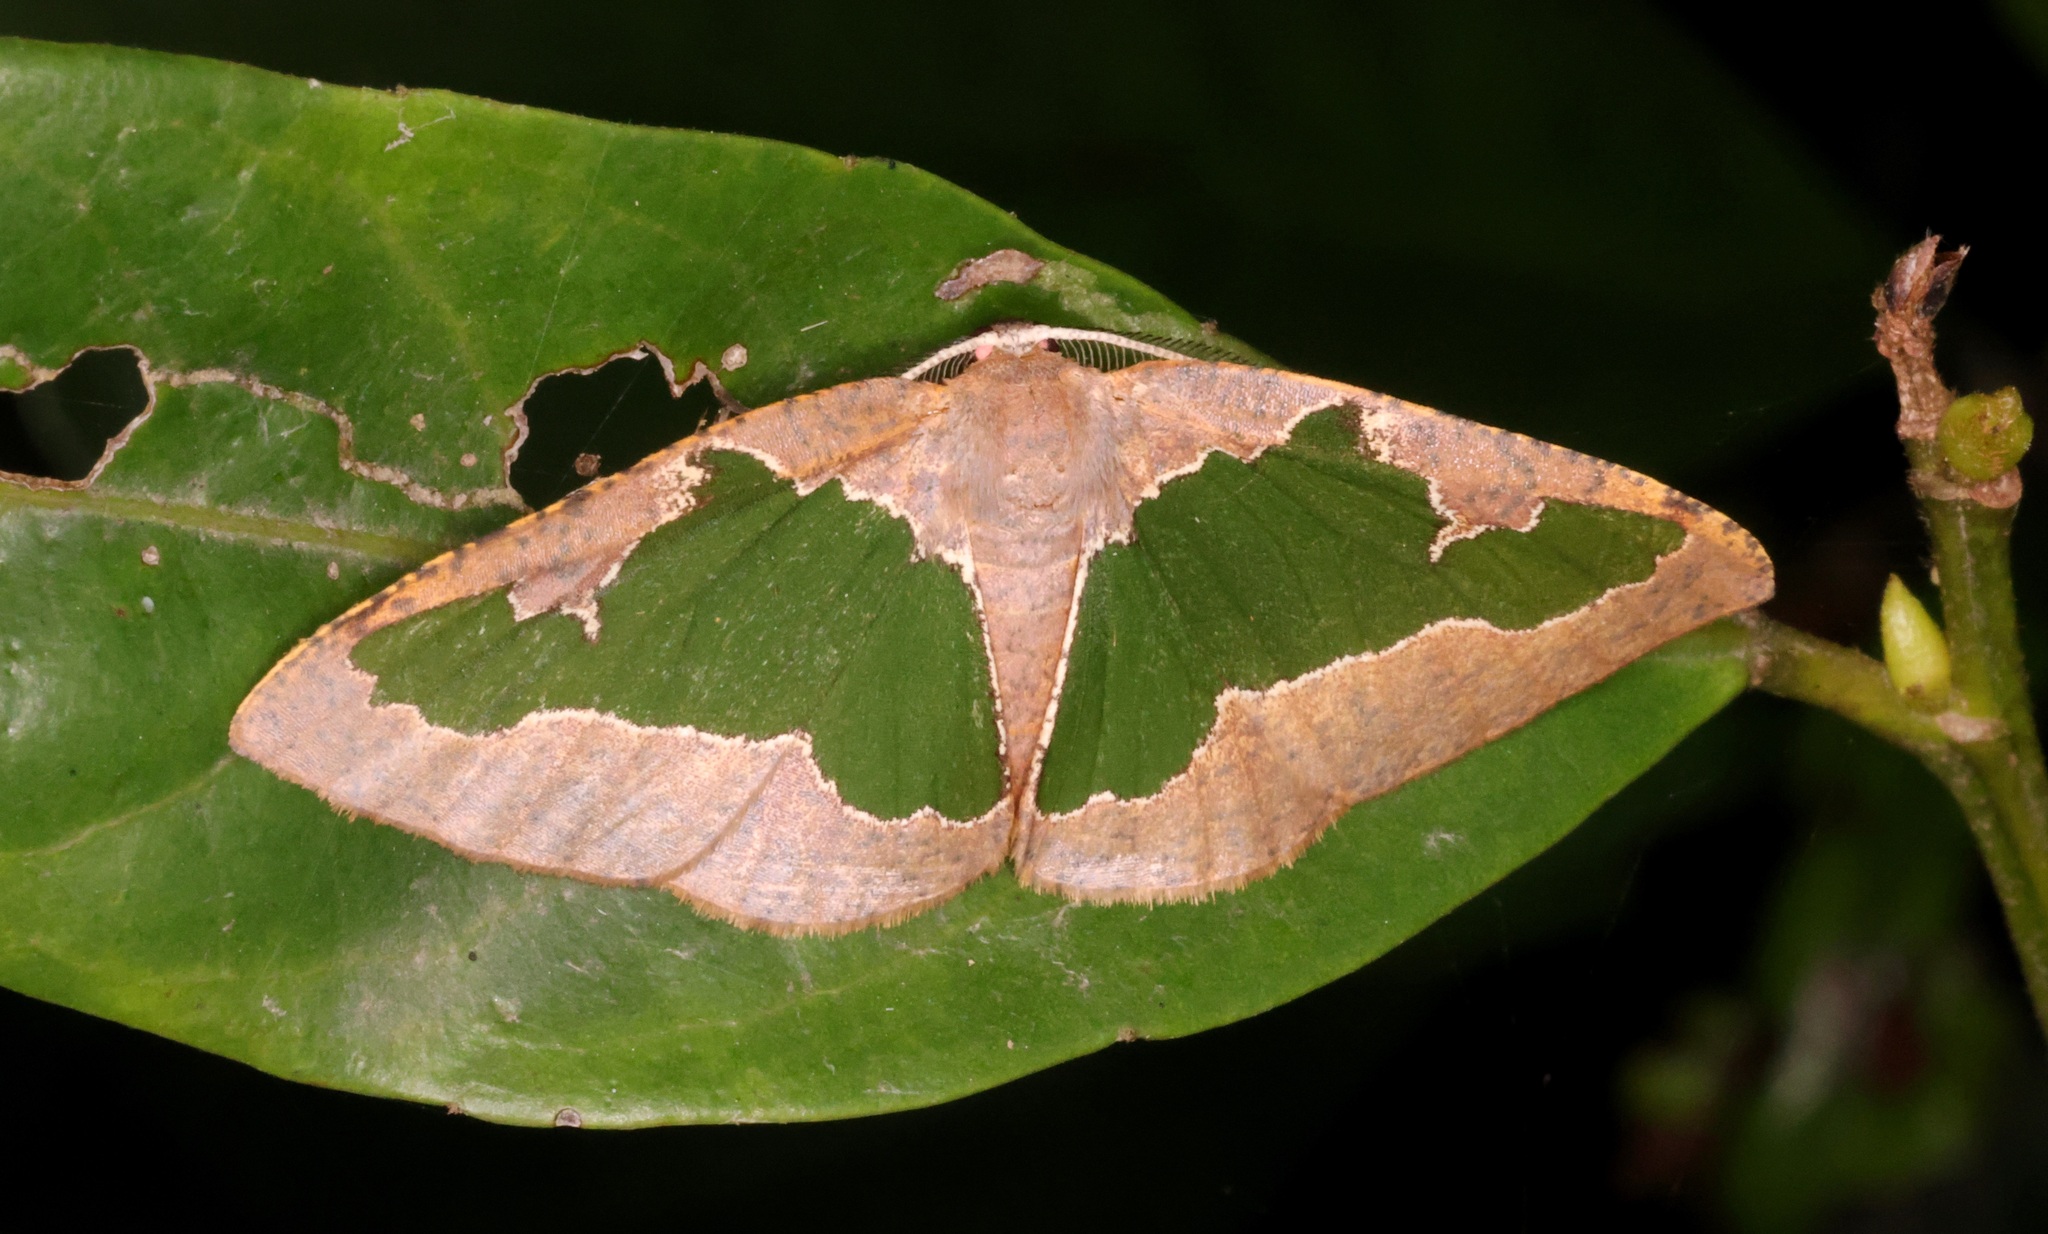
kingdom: Animalia
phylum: Arthropoda
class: Insecta
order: Lepidoptera
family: Geometridae
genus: Celenna
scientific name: Celenna festivaria
